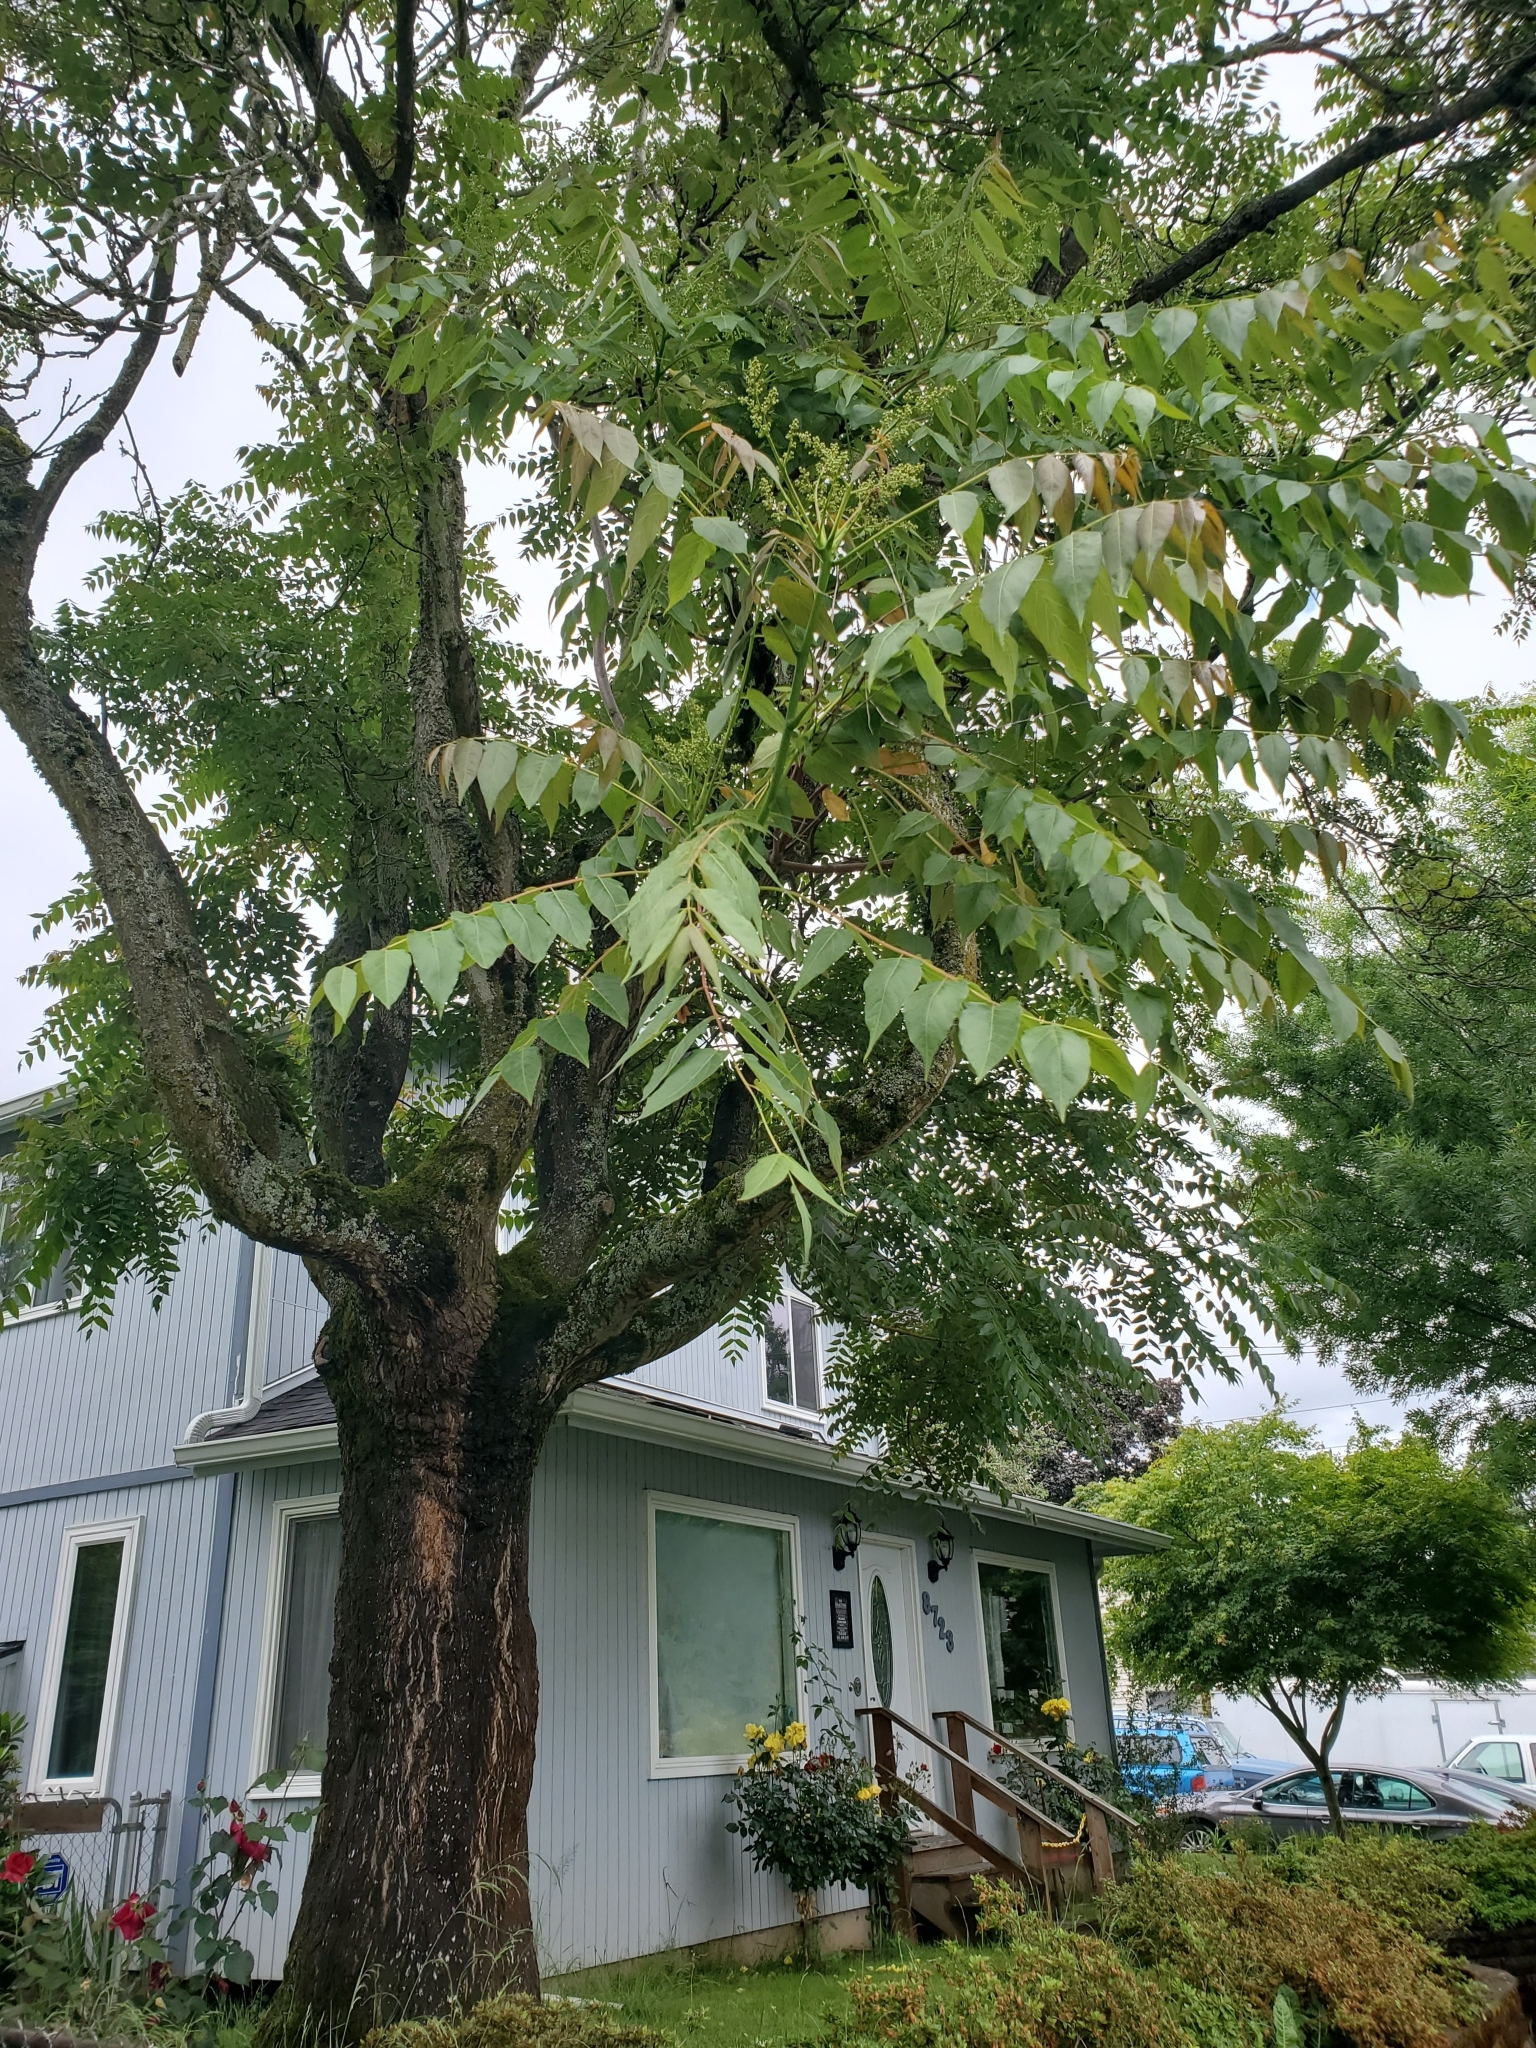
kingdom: Plantae
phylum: Tracheophyta
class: Magnoliopsida
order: Sapindales
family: Simaroubaceae
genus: Ailanthus
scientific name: Ailanthus altissima
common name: Tree-of-heaven
